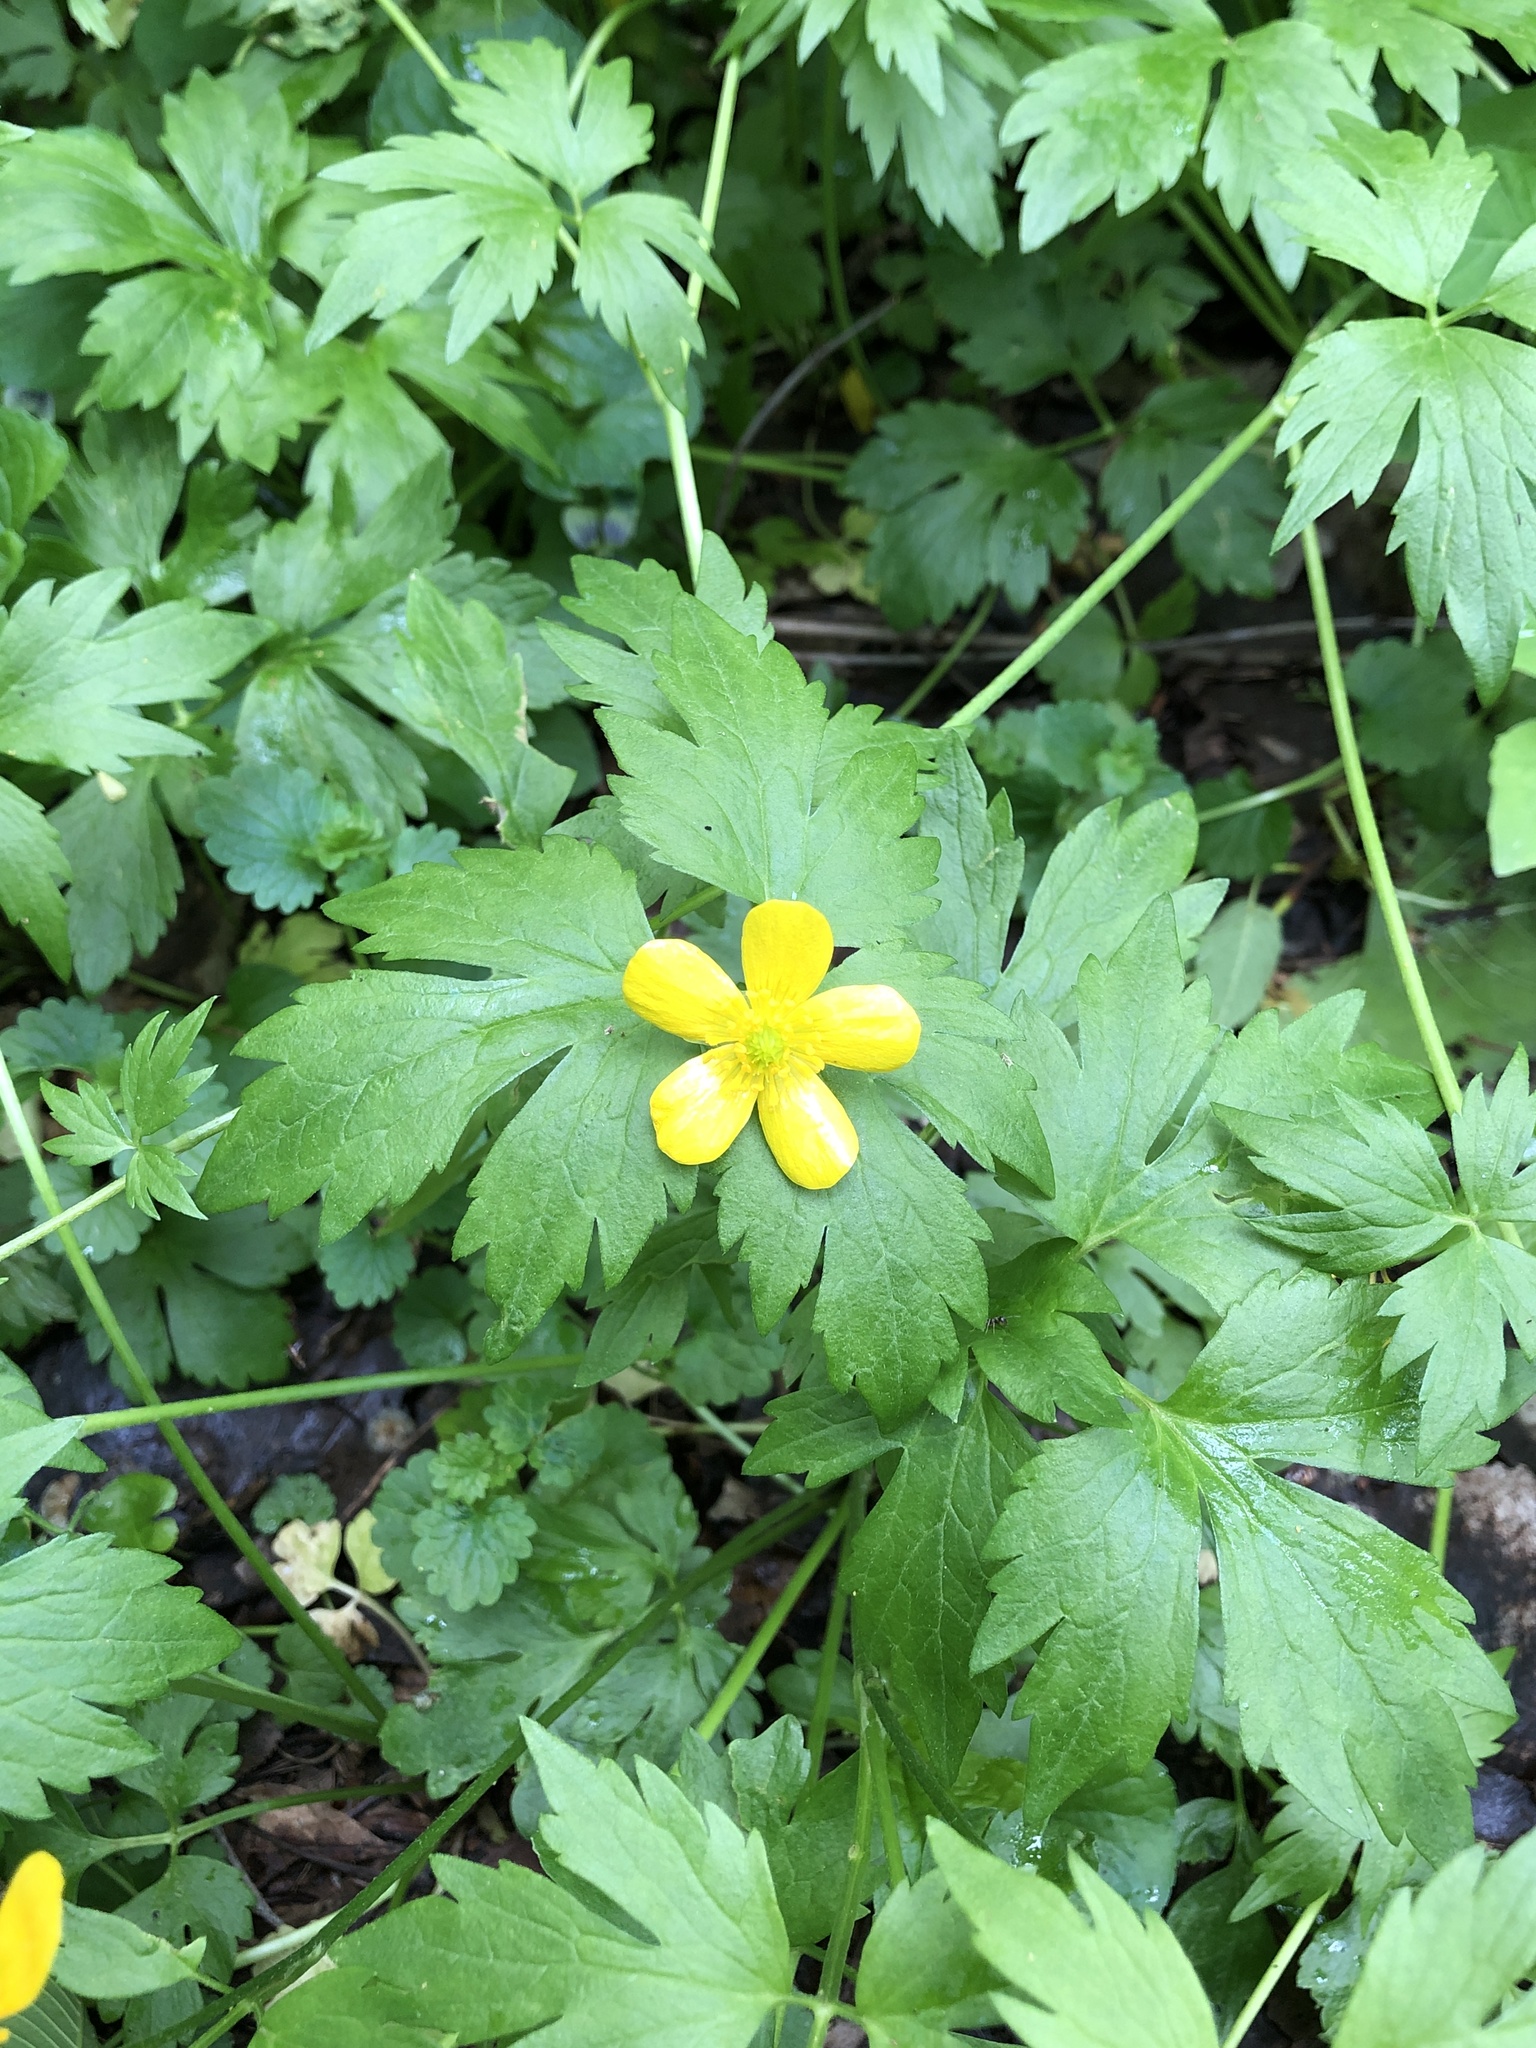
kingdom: Plantae
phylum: Tracheophyta
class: Magnoliopsida
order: Ranunculales
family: Ranunculaceae
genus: Ranunculus
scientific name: Ranunculus hispidus
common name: Bristly buttercup
